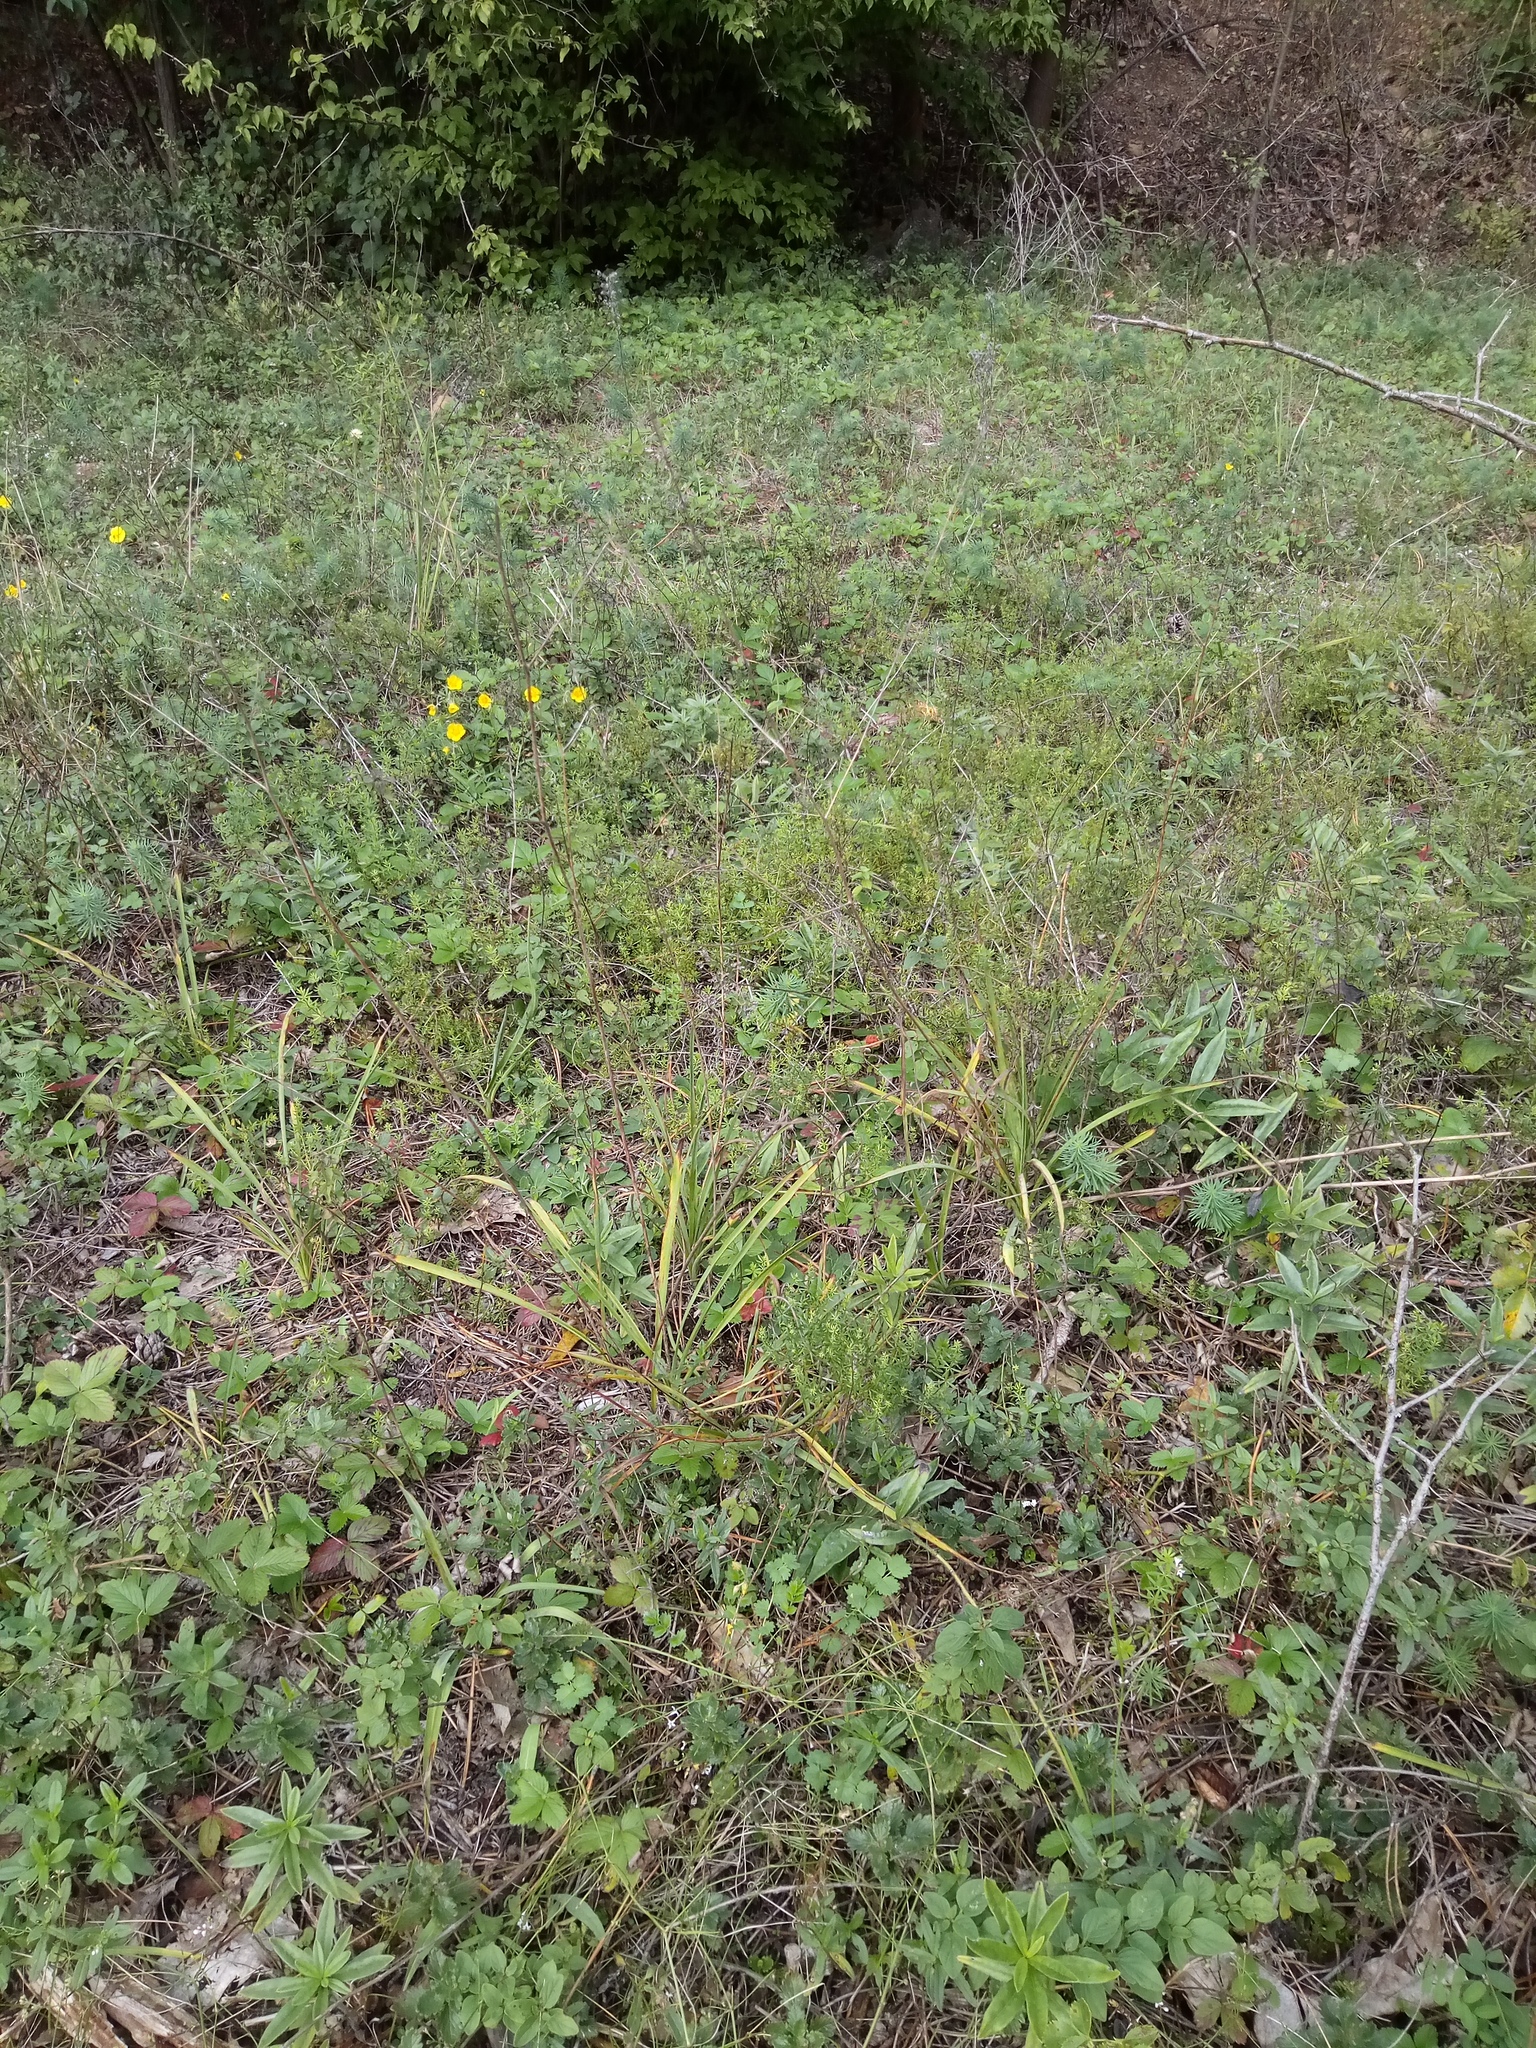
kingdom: Plantae
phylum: Tracheophyta
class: Liliopsida
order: Asparagales
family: Asparagaceae
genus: Anthericum
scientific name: Anthericum ramosum
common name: Branched st. bernard's-lily
